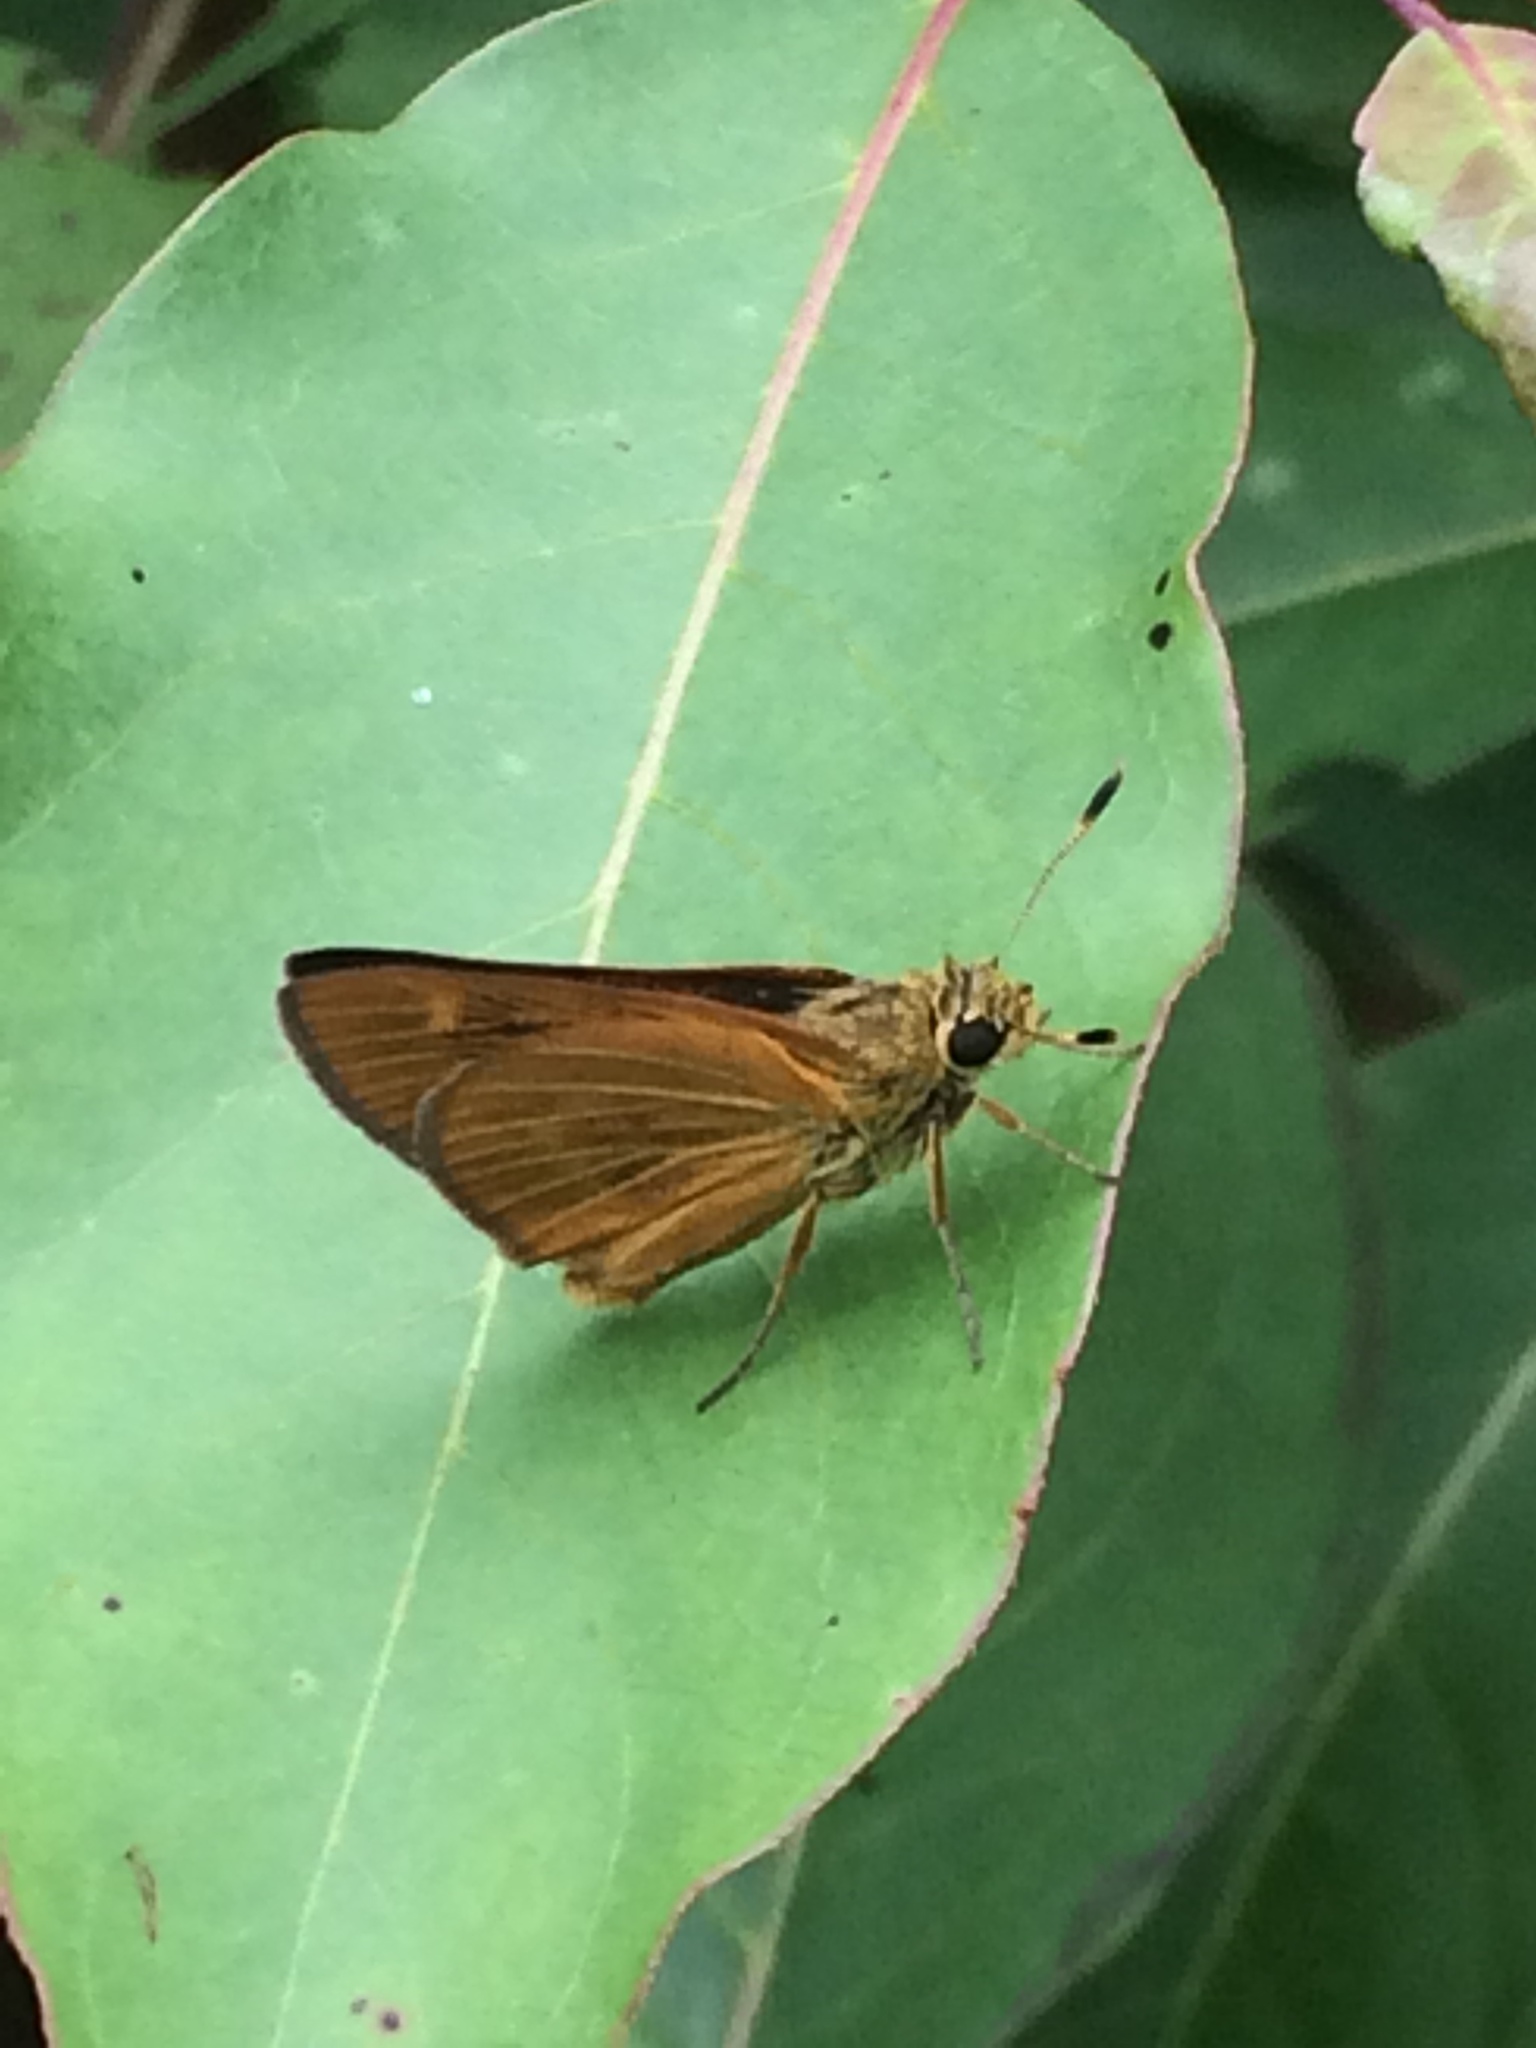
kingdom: Animalia
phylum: Arthropoda
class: Insecta
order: Lepidoptera
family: Hesperiidae
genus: Problema
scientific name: Problema byssus
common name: Byssus skipper
